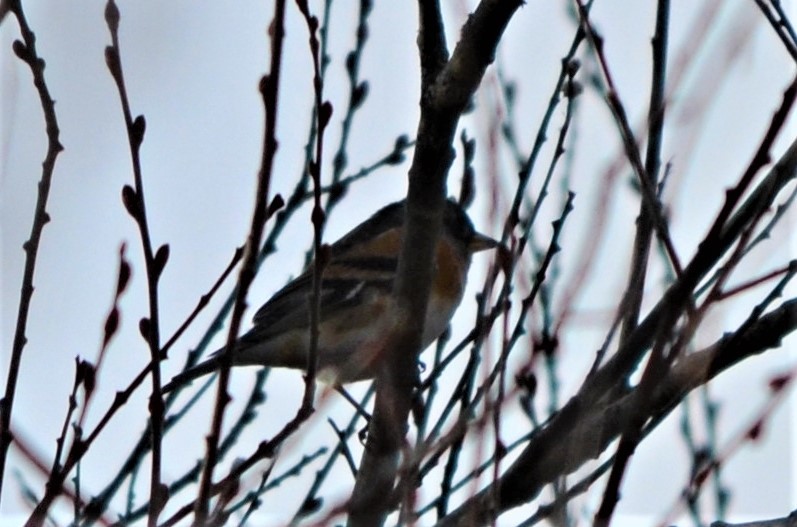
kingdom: Animalia
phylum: Chordata
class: Aves
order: Passeriformes
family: Fringillidae
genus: Fringilla
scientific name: Fringilla montifringilla
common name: Brambling
